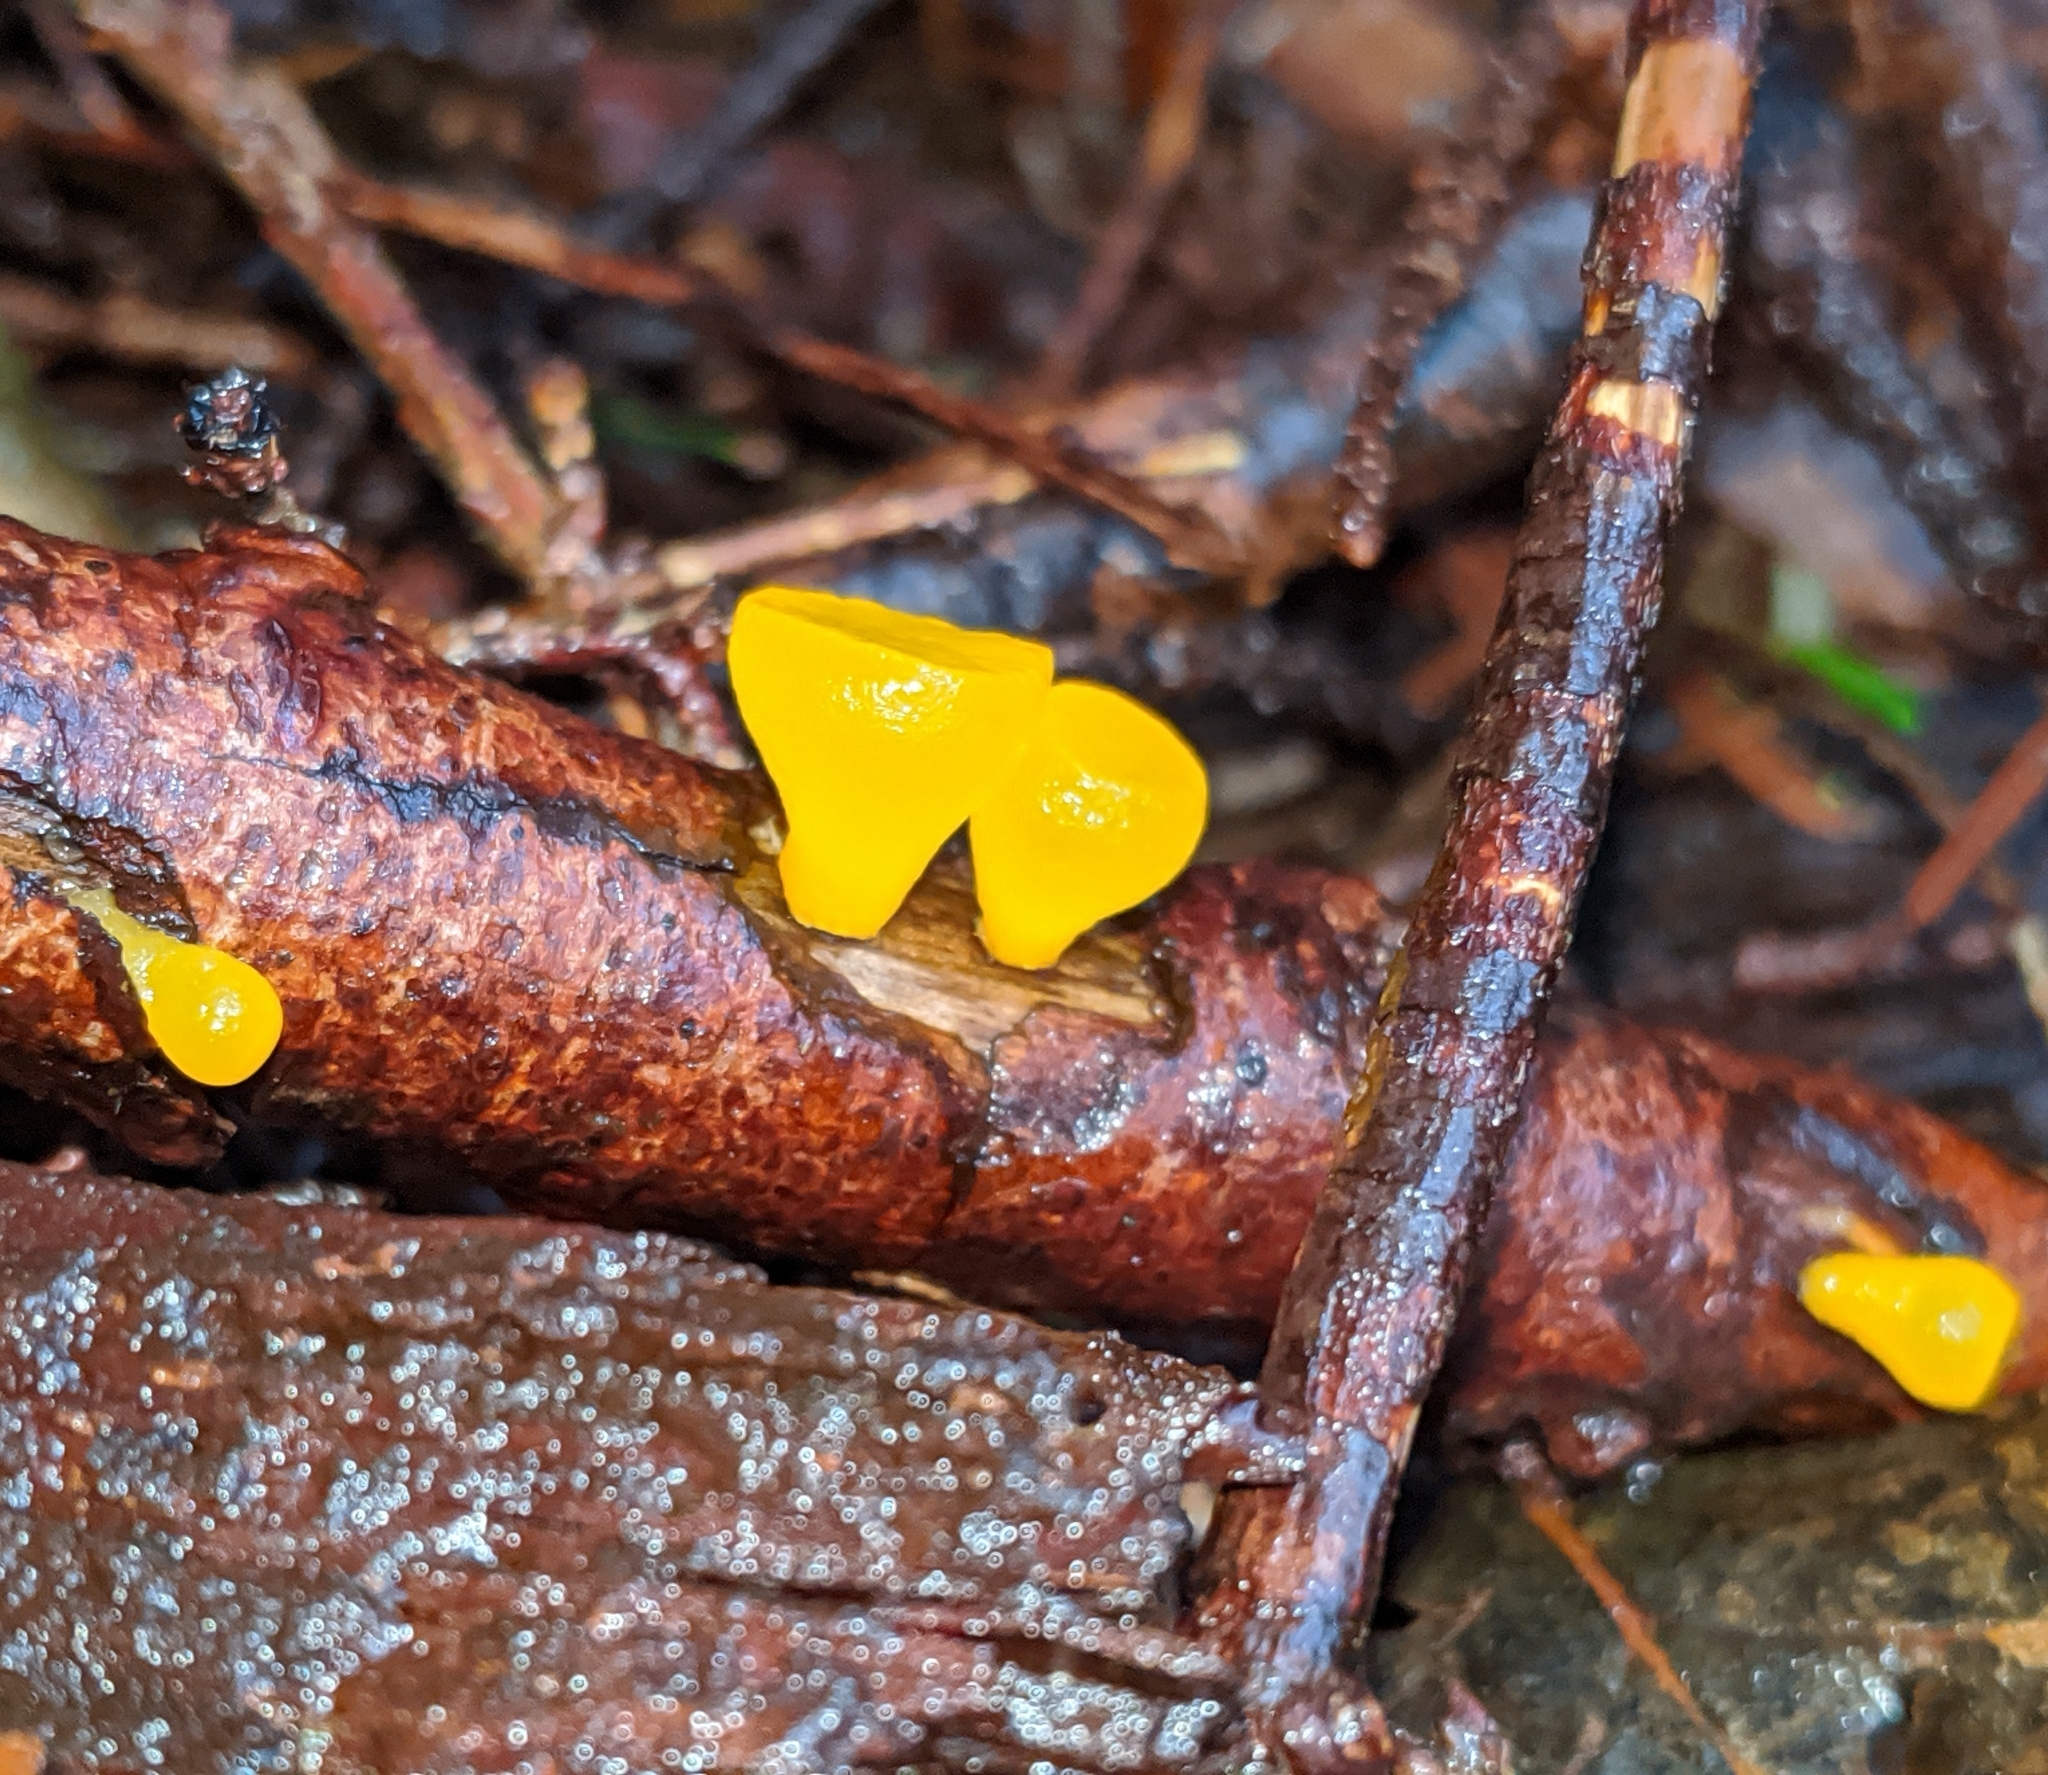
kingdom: Fungi
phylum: Basidiomycota
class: Dacrymycetes
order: Dacrymycetales
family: Dacrymycetaceae
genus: Guepiniopsis
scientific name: Guepiniopsis alpina
